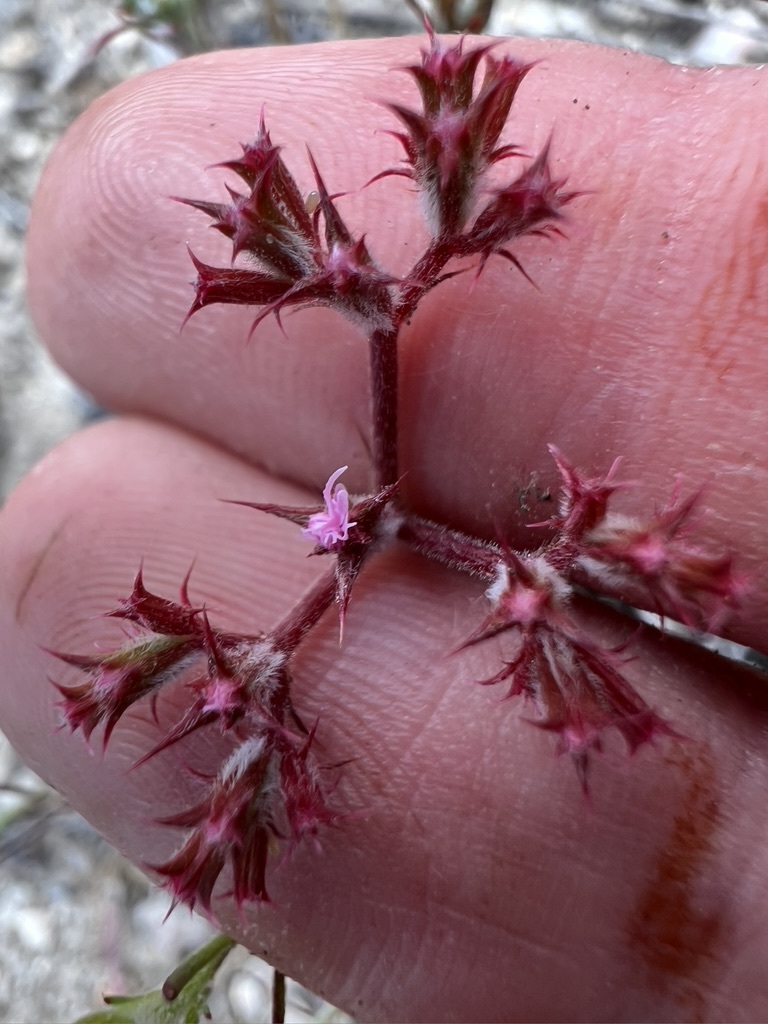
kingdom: Plantae
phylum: Tracheophyta
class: Magnoliopsida
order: Caryophyllales
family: Polygonaceae
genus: Chorizanthe
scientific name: Chorizanthe fimbriata
